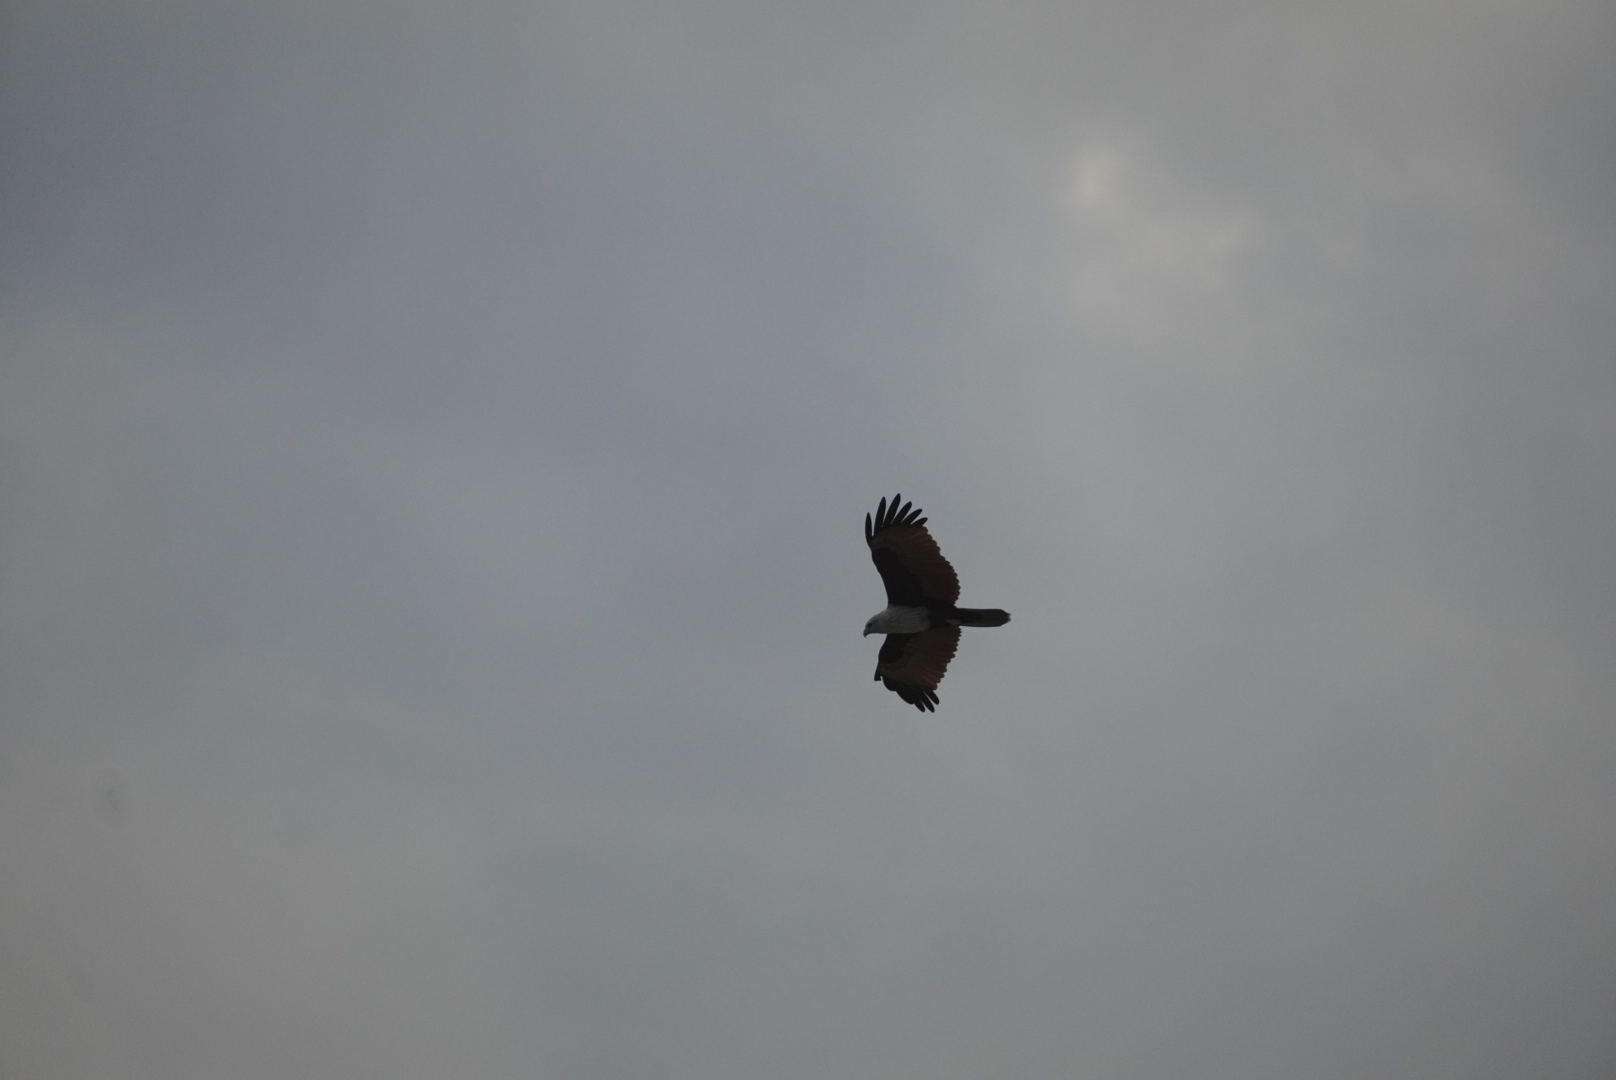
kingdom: Animalia
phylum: Chordata
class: Aves
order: Accipitriformes
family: Accipitridae
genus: Haliastur
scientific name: Haliastur indus
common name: Brahminy kite
